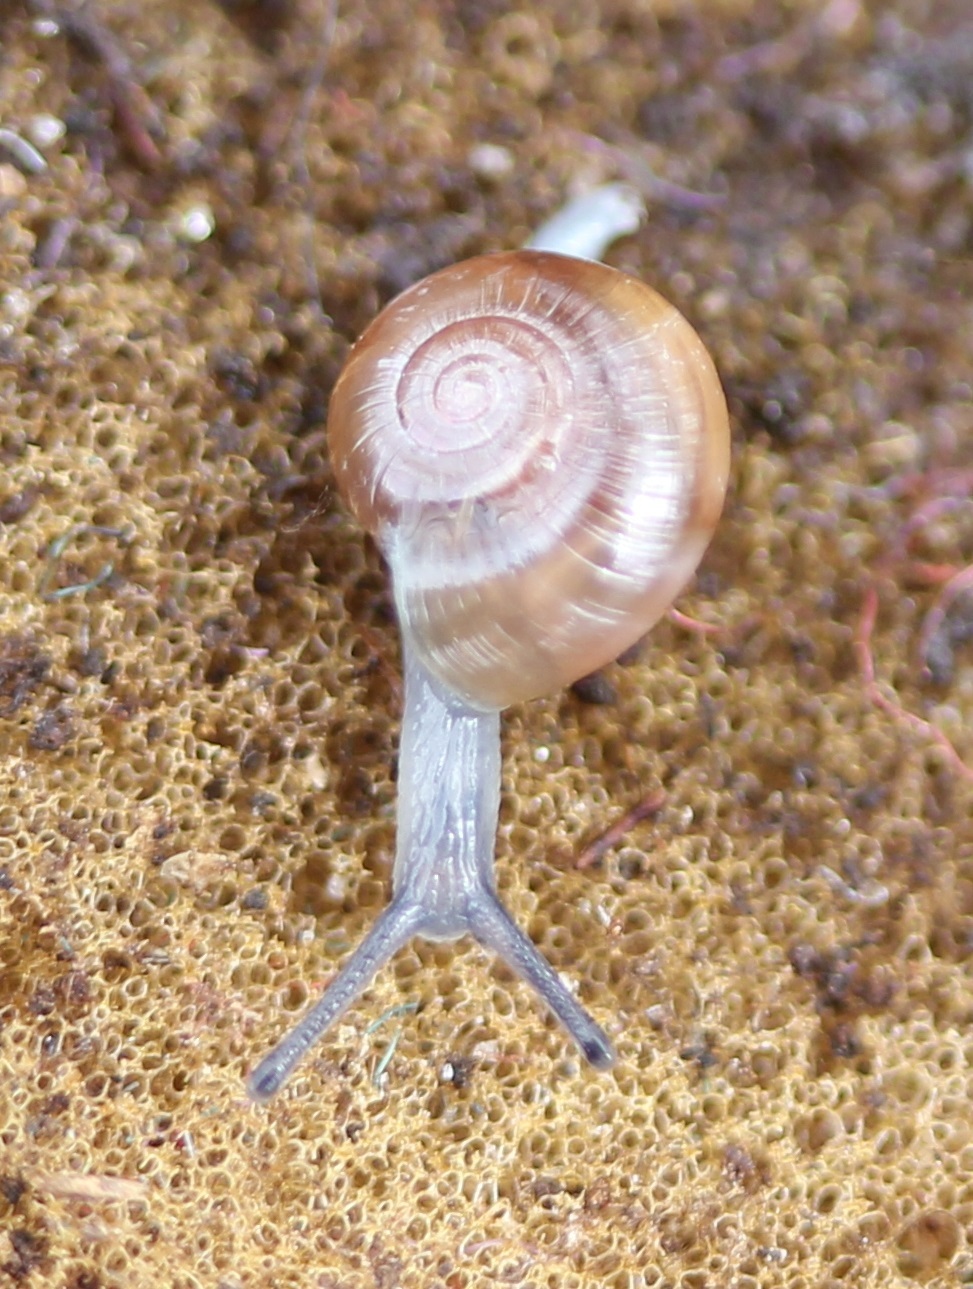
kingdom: Animalia
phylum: Mollusca
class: Gastropoda
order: Stylommatophora
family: Gastrodontidae
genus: Glyphyalinia
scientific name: Glyphyalinia indentata
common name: Carved glyph
